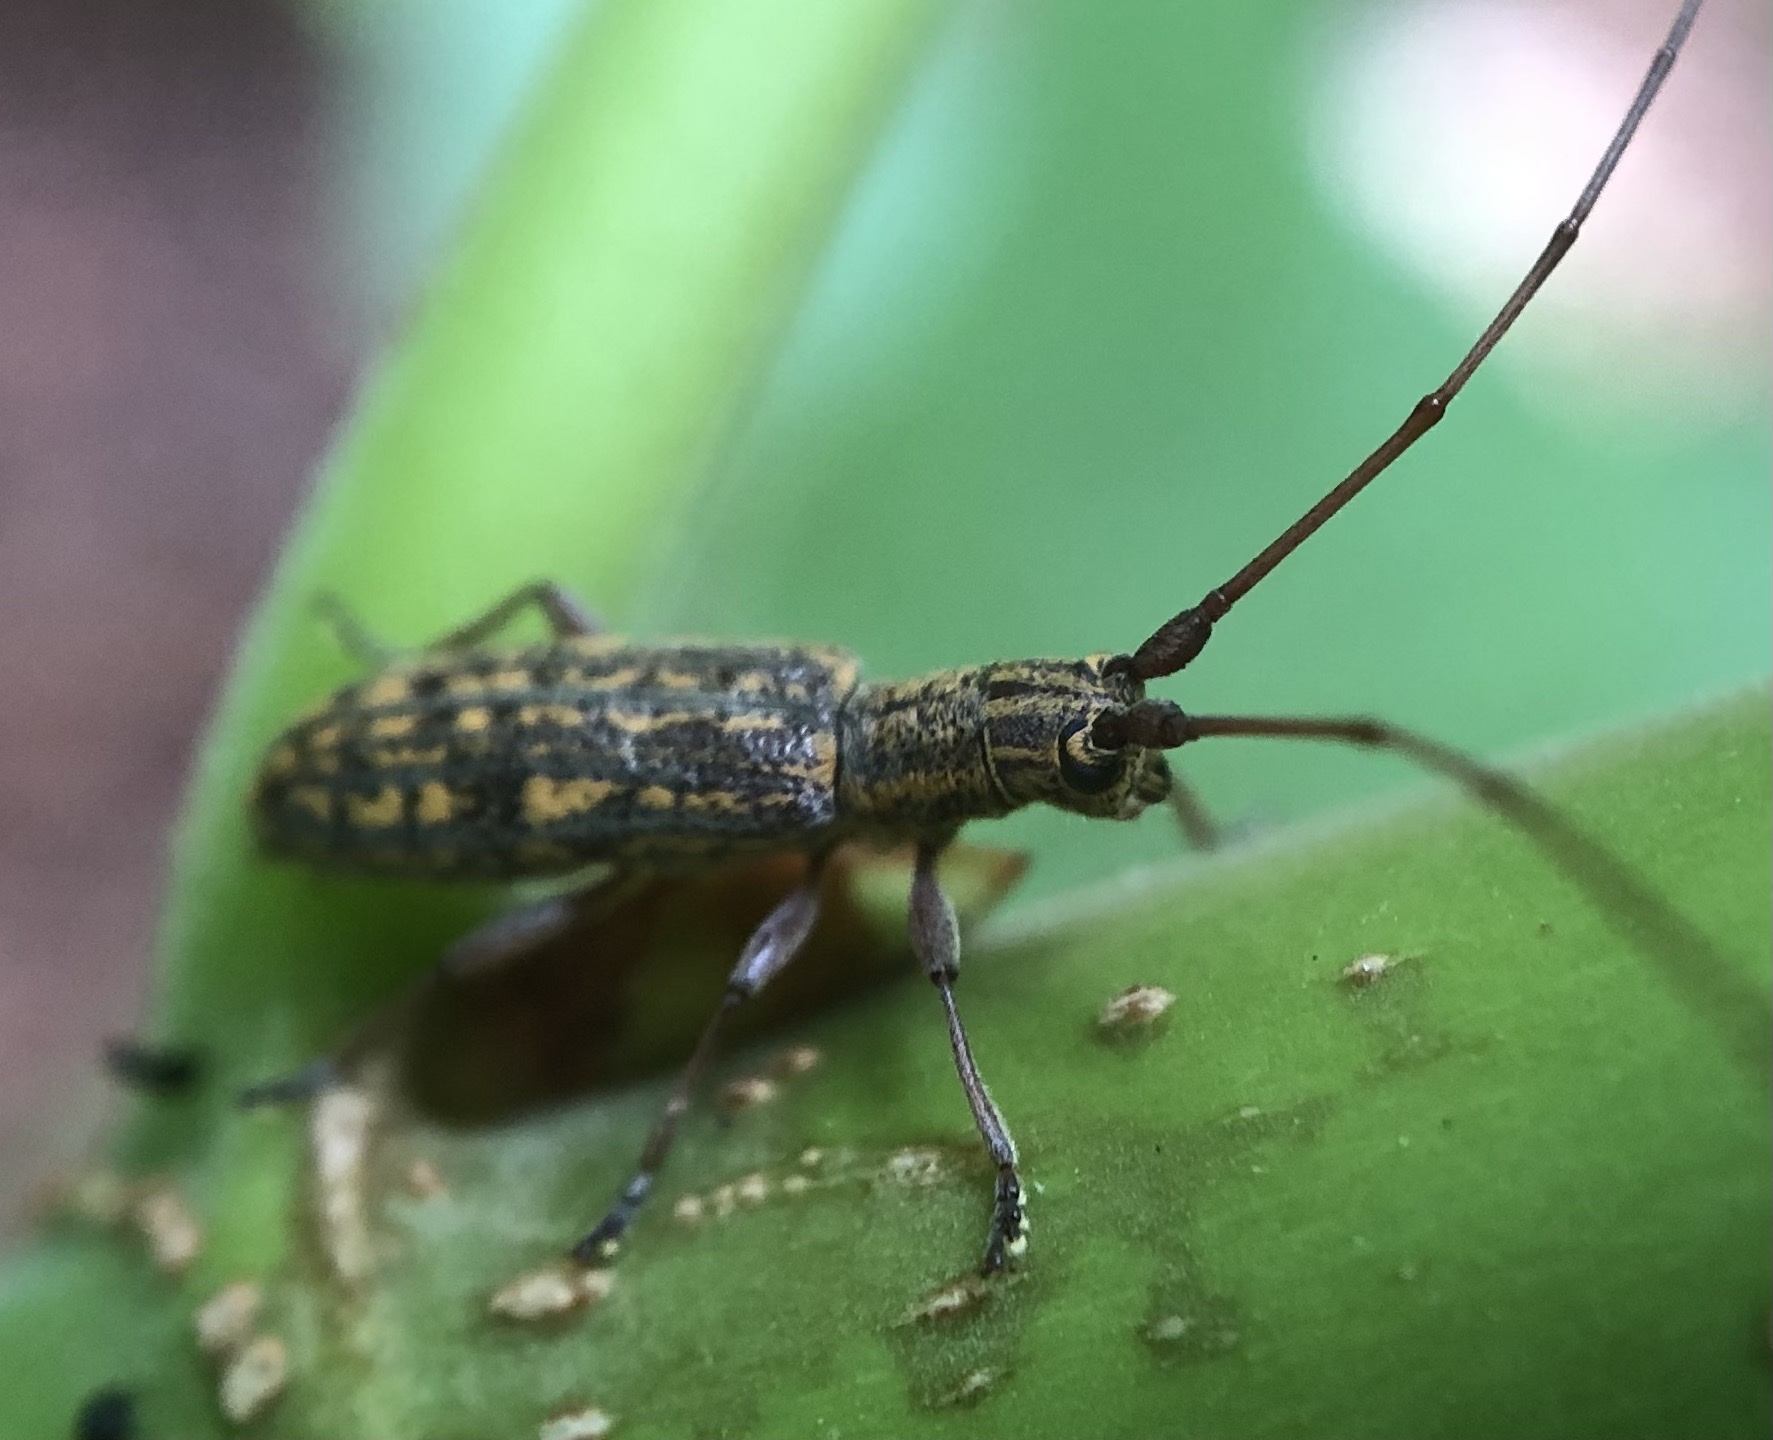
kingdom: Animalia
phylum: Arthropoda
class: Insecta
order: Coleoptera
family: Cerambycidae
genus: Dorcaschema
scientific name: Dorcaschema alternatum
